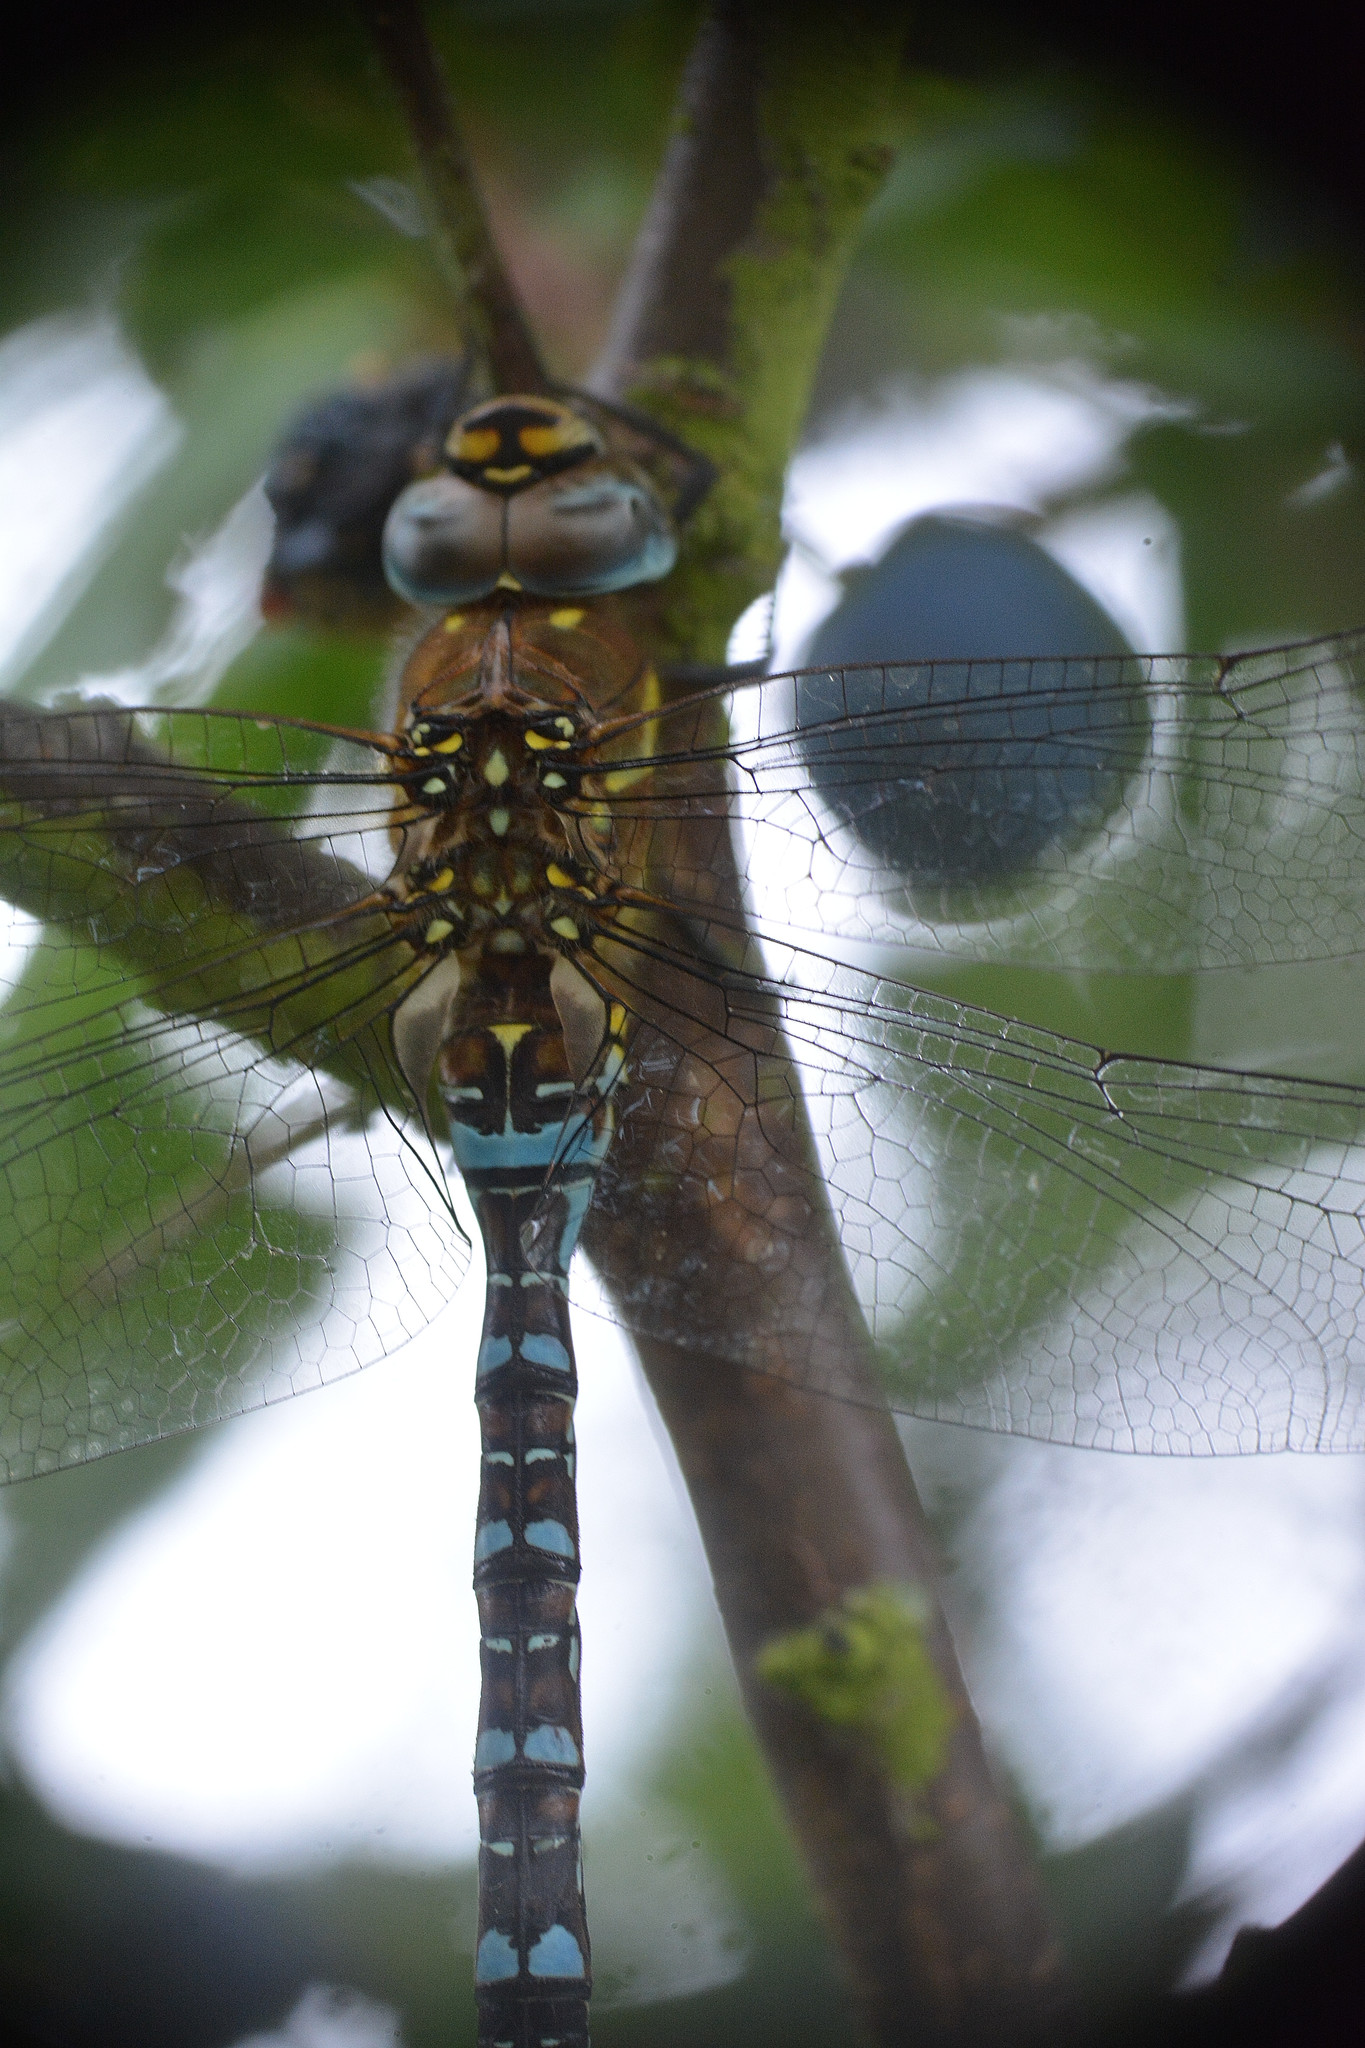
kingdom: Animalia
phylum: Arthropoda
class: Insecta
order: Odonata
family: Aeshnidae
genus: Aeshna
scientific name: Aeshna mixta
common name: Migrant hawker
